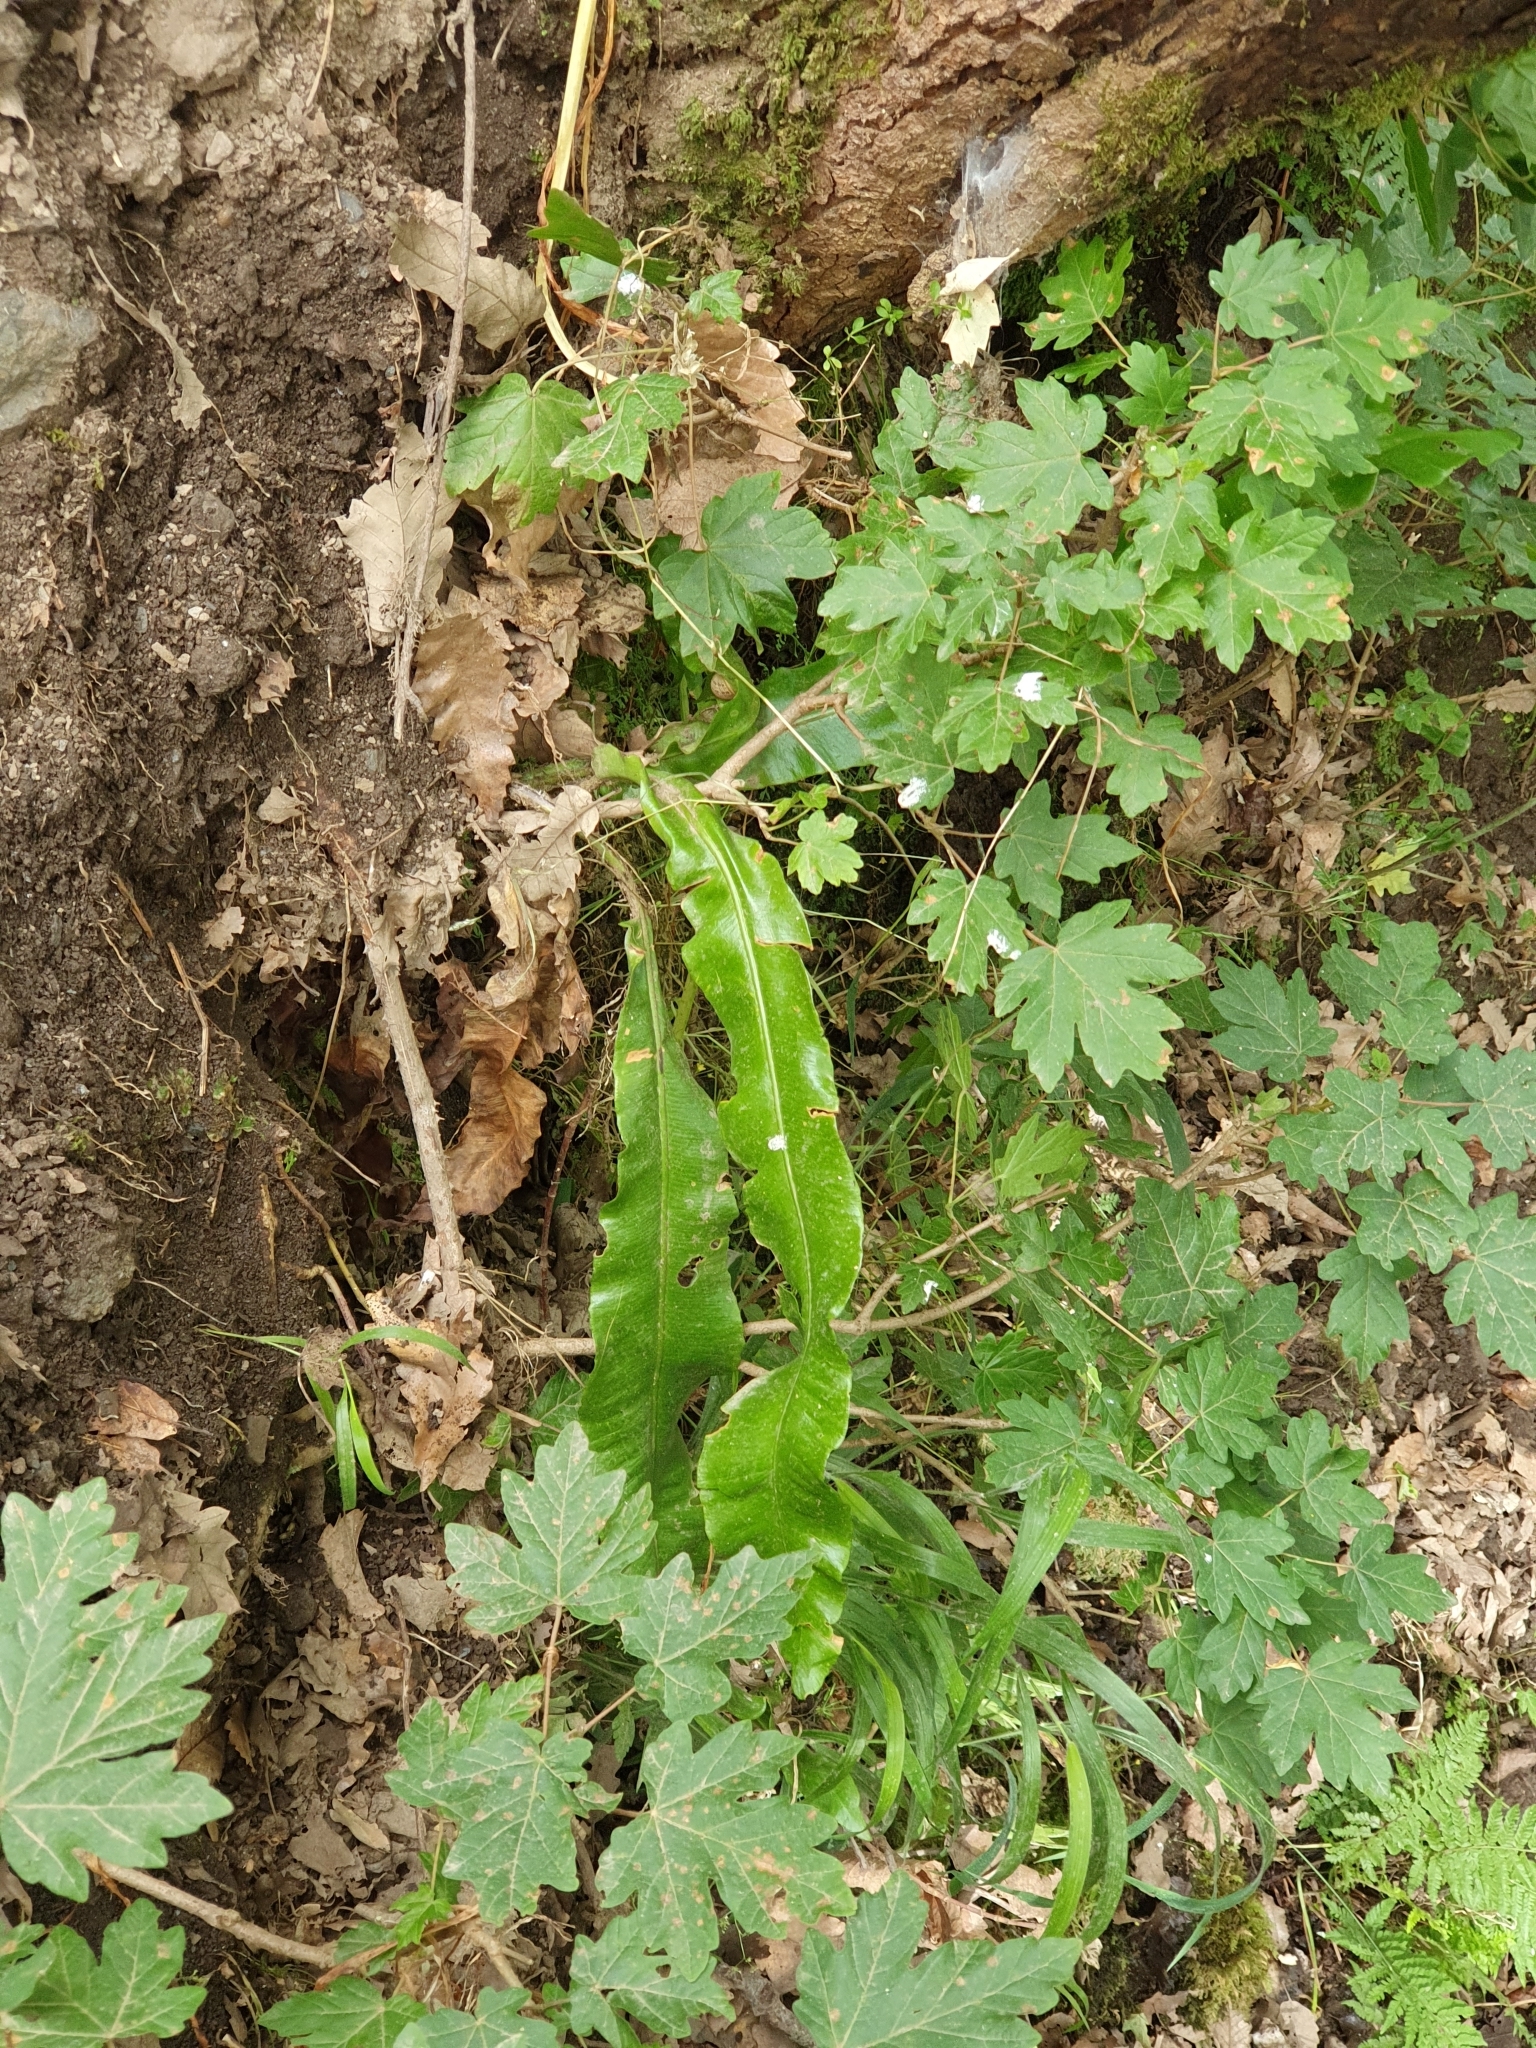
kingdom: Plantae
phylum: Tracheophyta
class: Polypodiopsida
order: Polypodiales
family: Aspleniaceae
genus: Asplenium
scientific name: Asplenium scolopendrium
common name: Hart's-tongue fern
